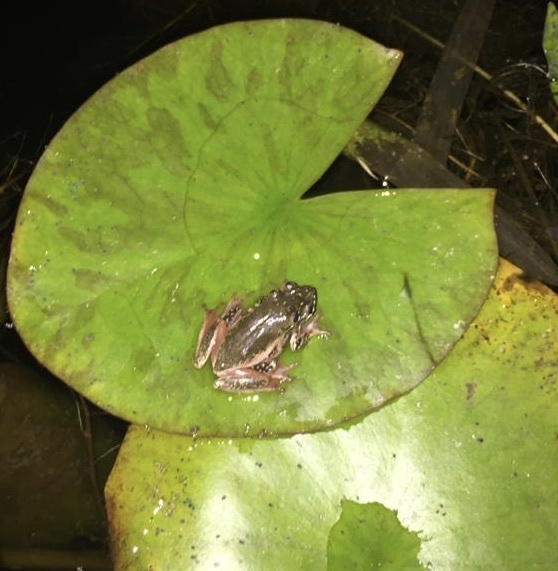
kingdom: Animalia
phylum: Chordata
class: Amphibia
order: Anura
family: Hyperoliidae
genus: Hyperolius
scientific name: Hyperolius marmoratus
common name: Painted reed frog
